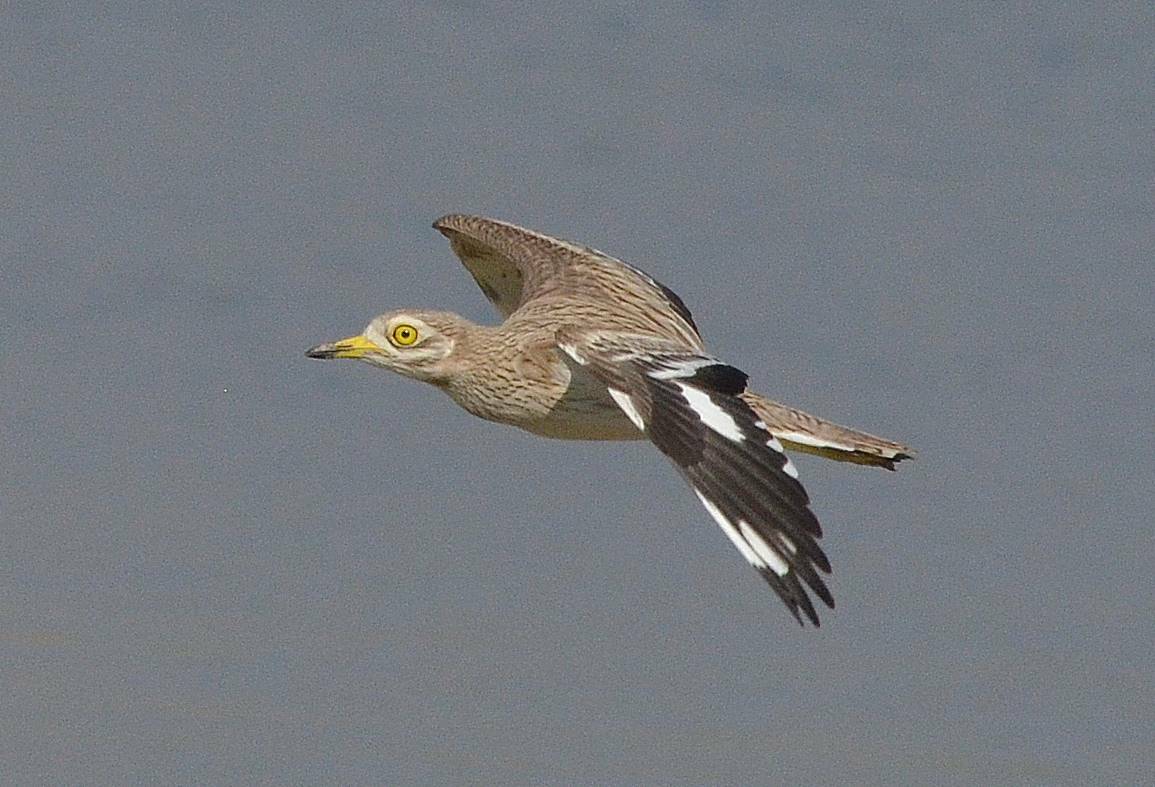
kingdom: Animalia
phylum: Chordata
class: Aves
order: Charadriiformes
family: Burhinidae
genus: Burhinus
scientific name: Burhinus oedicnemus
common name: Eurasian stone-curlew
